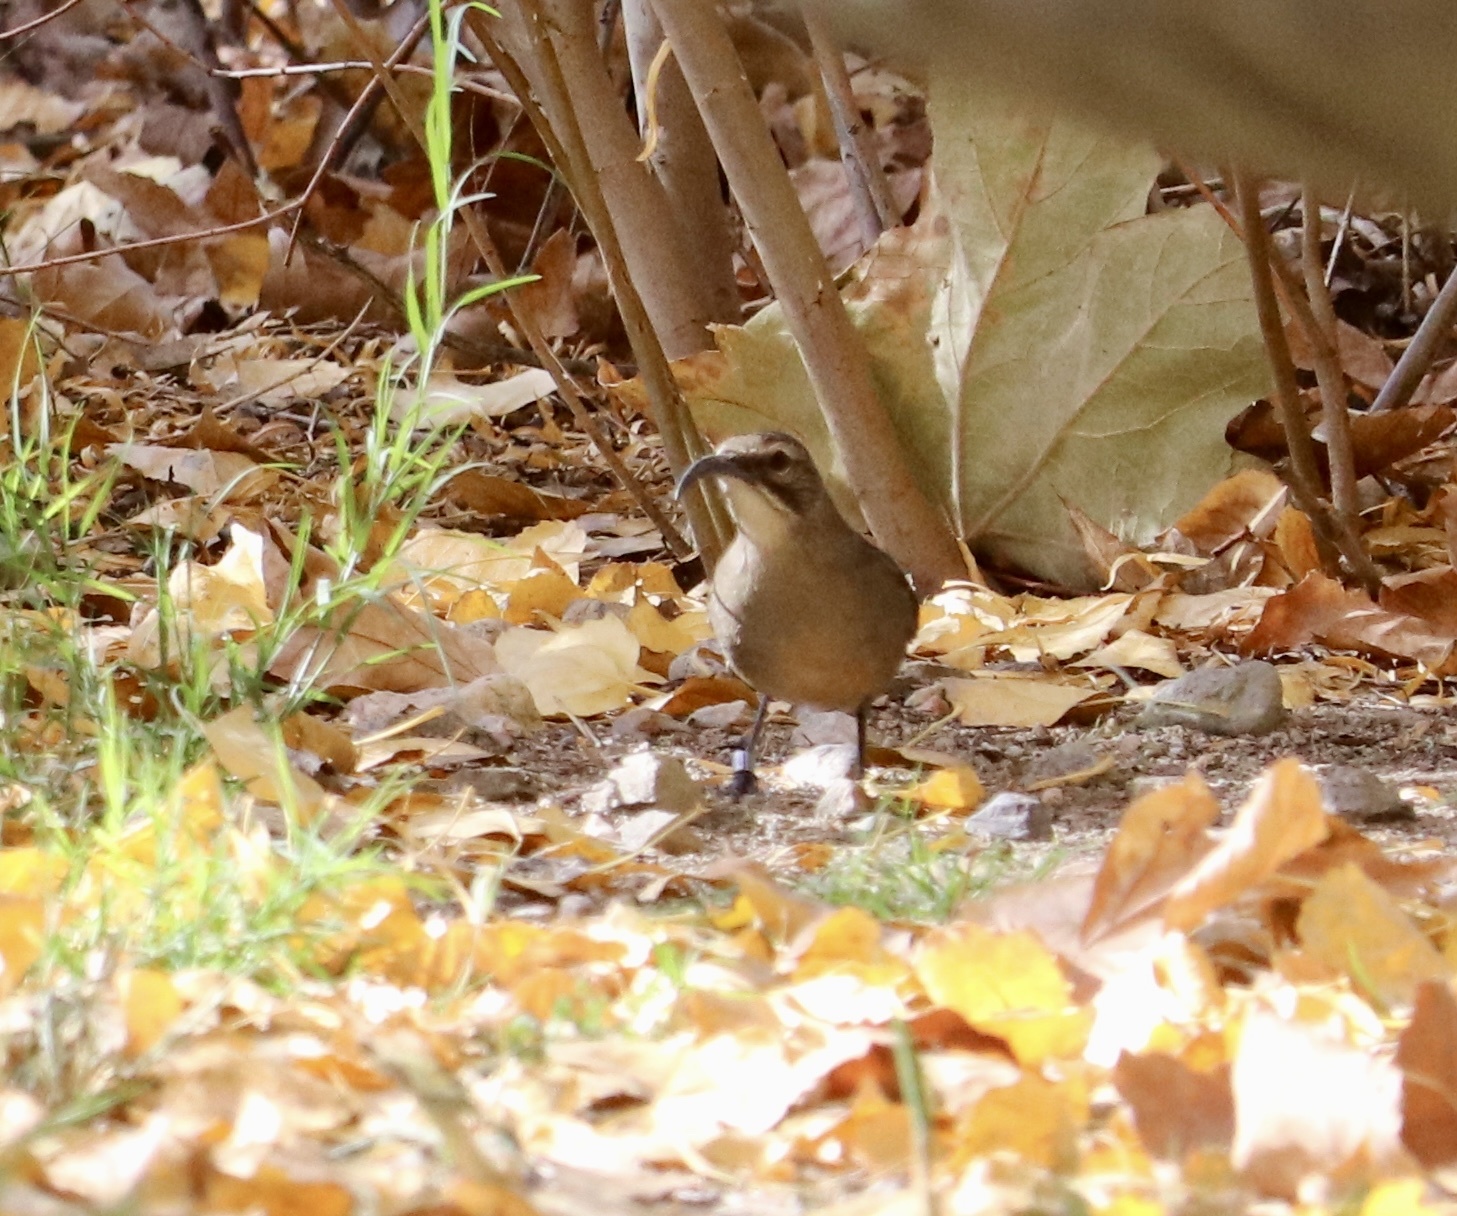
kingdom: Animalia
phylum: Chordata
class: Aves
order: Passeriformes
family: Mimidae
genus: Toxostoma
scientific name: Toxostoma redivivum
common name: California thrasher
